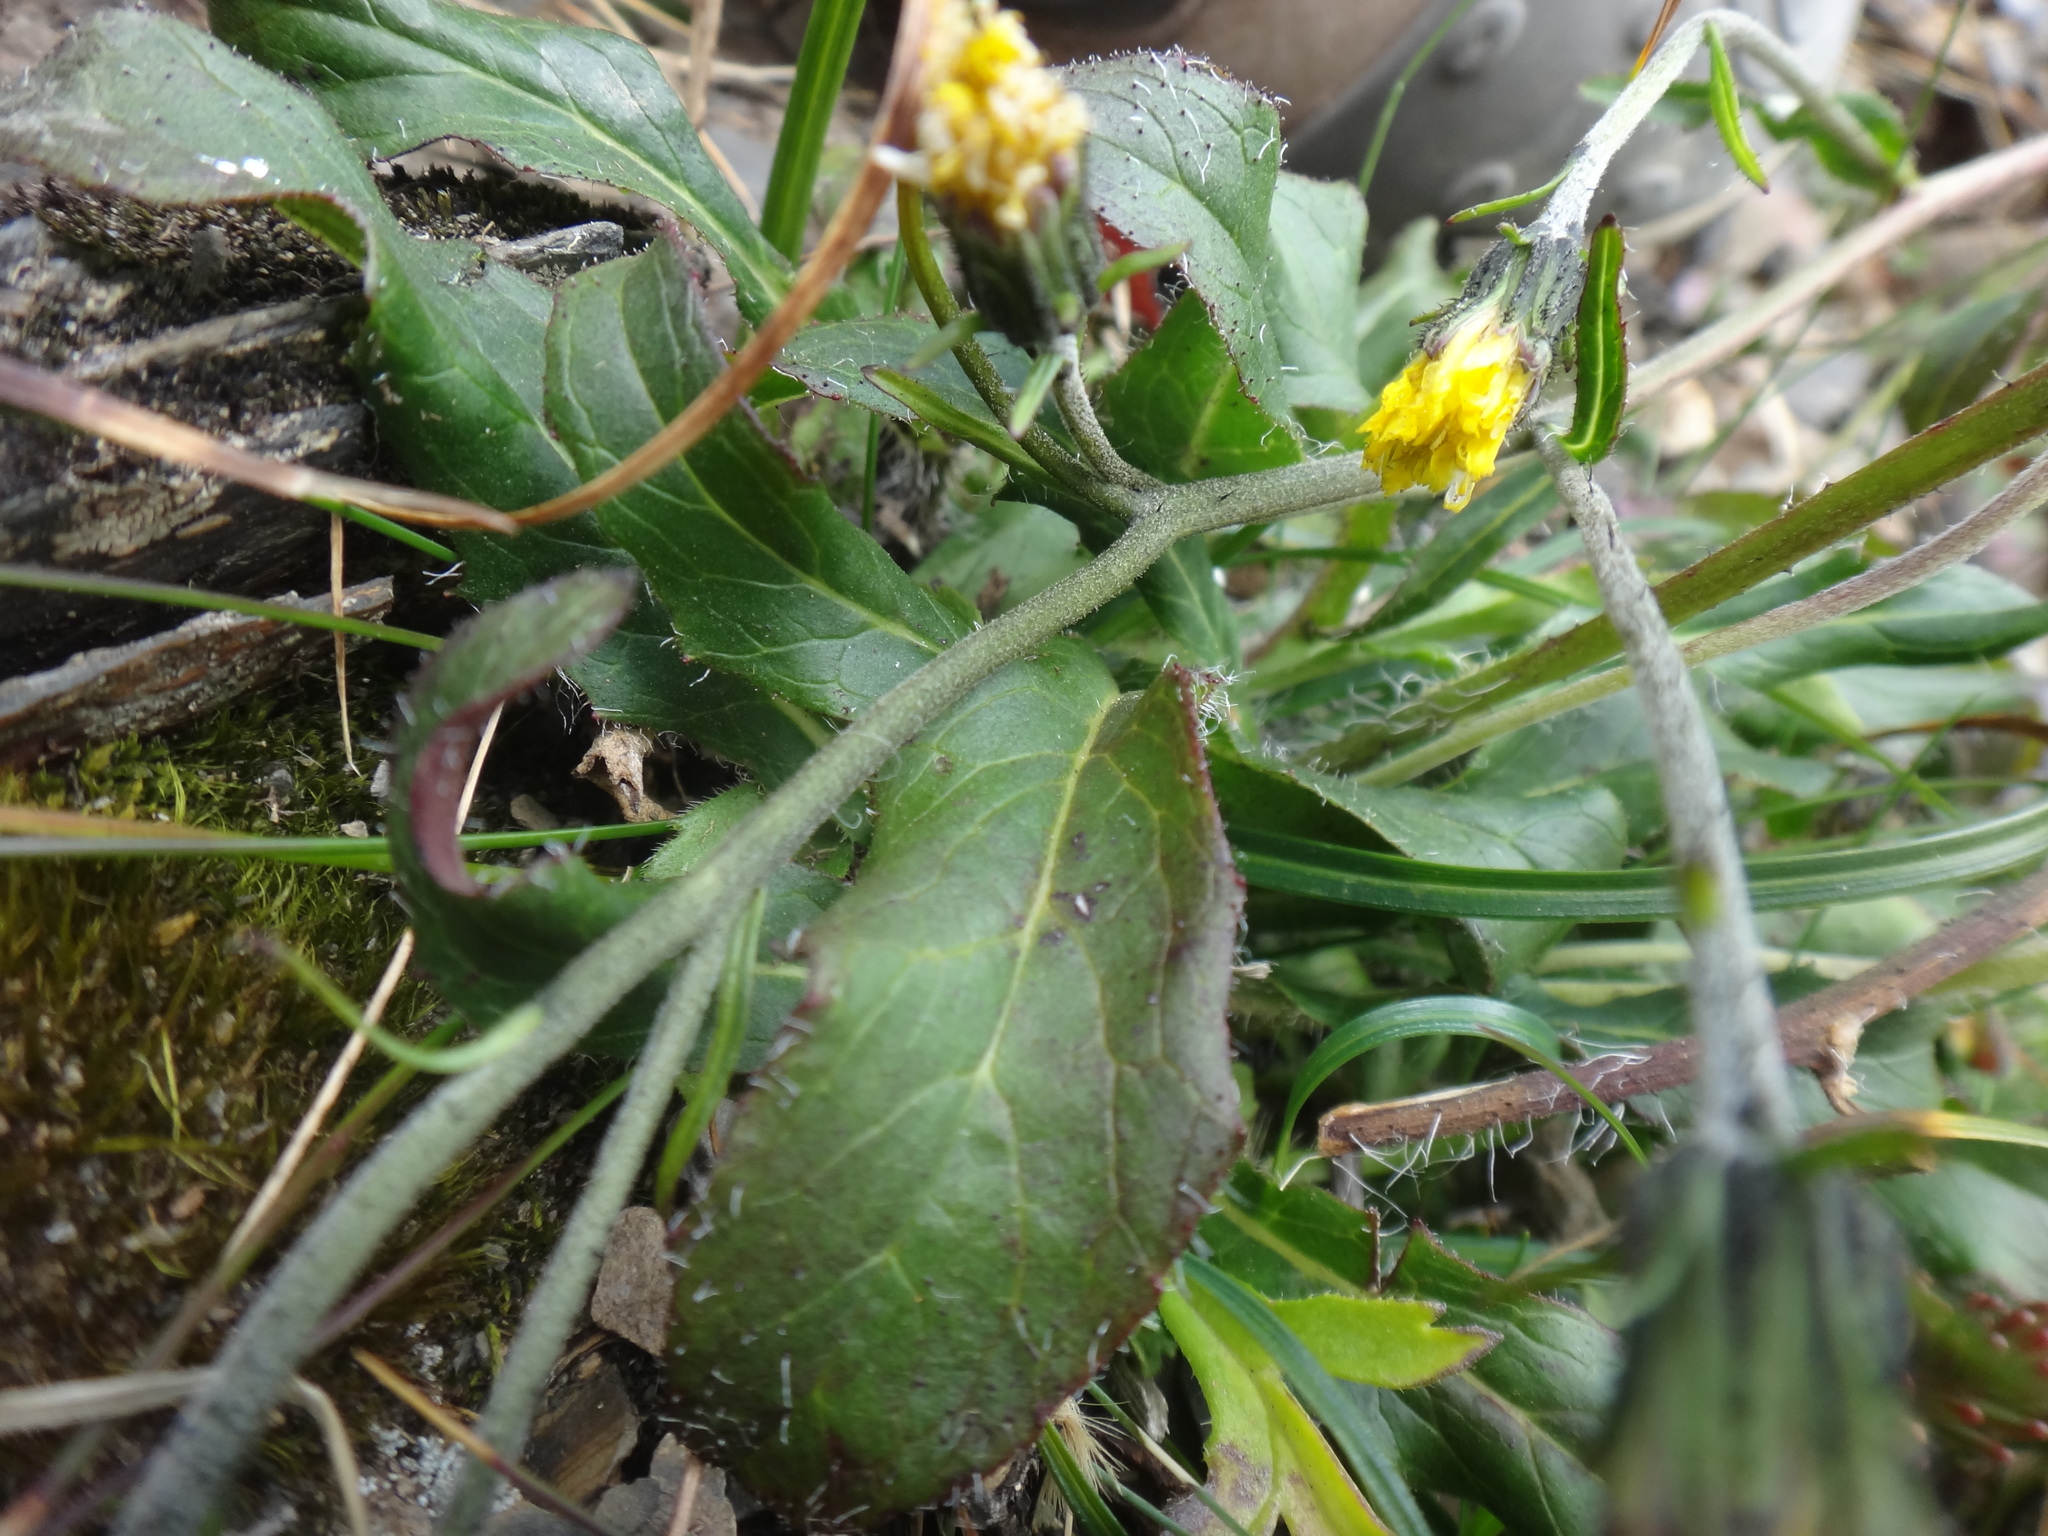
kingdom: Plantae
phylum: Tracheophyta
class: Magnoliopsida
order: Asterales
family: Asteraceae
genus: Hieracium
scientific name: Hieracium morii
